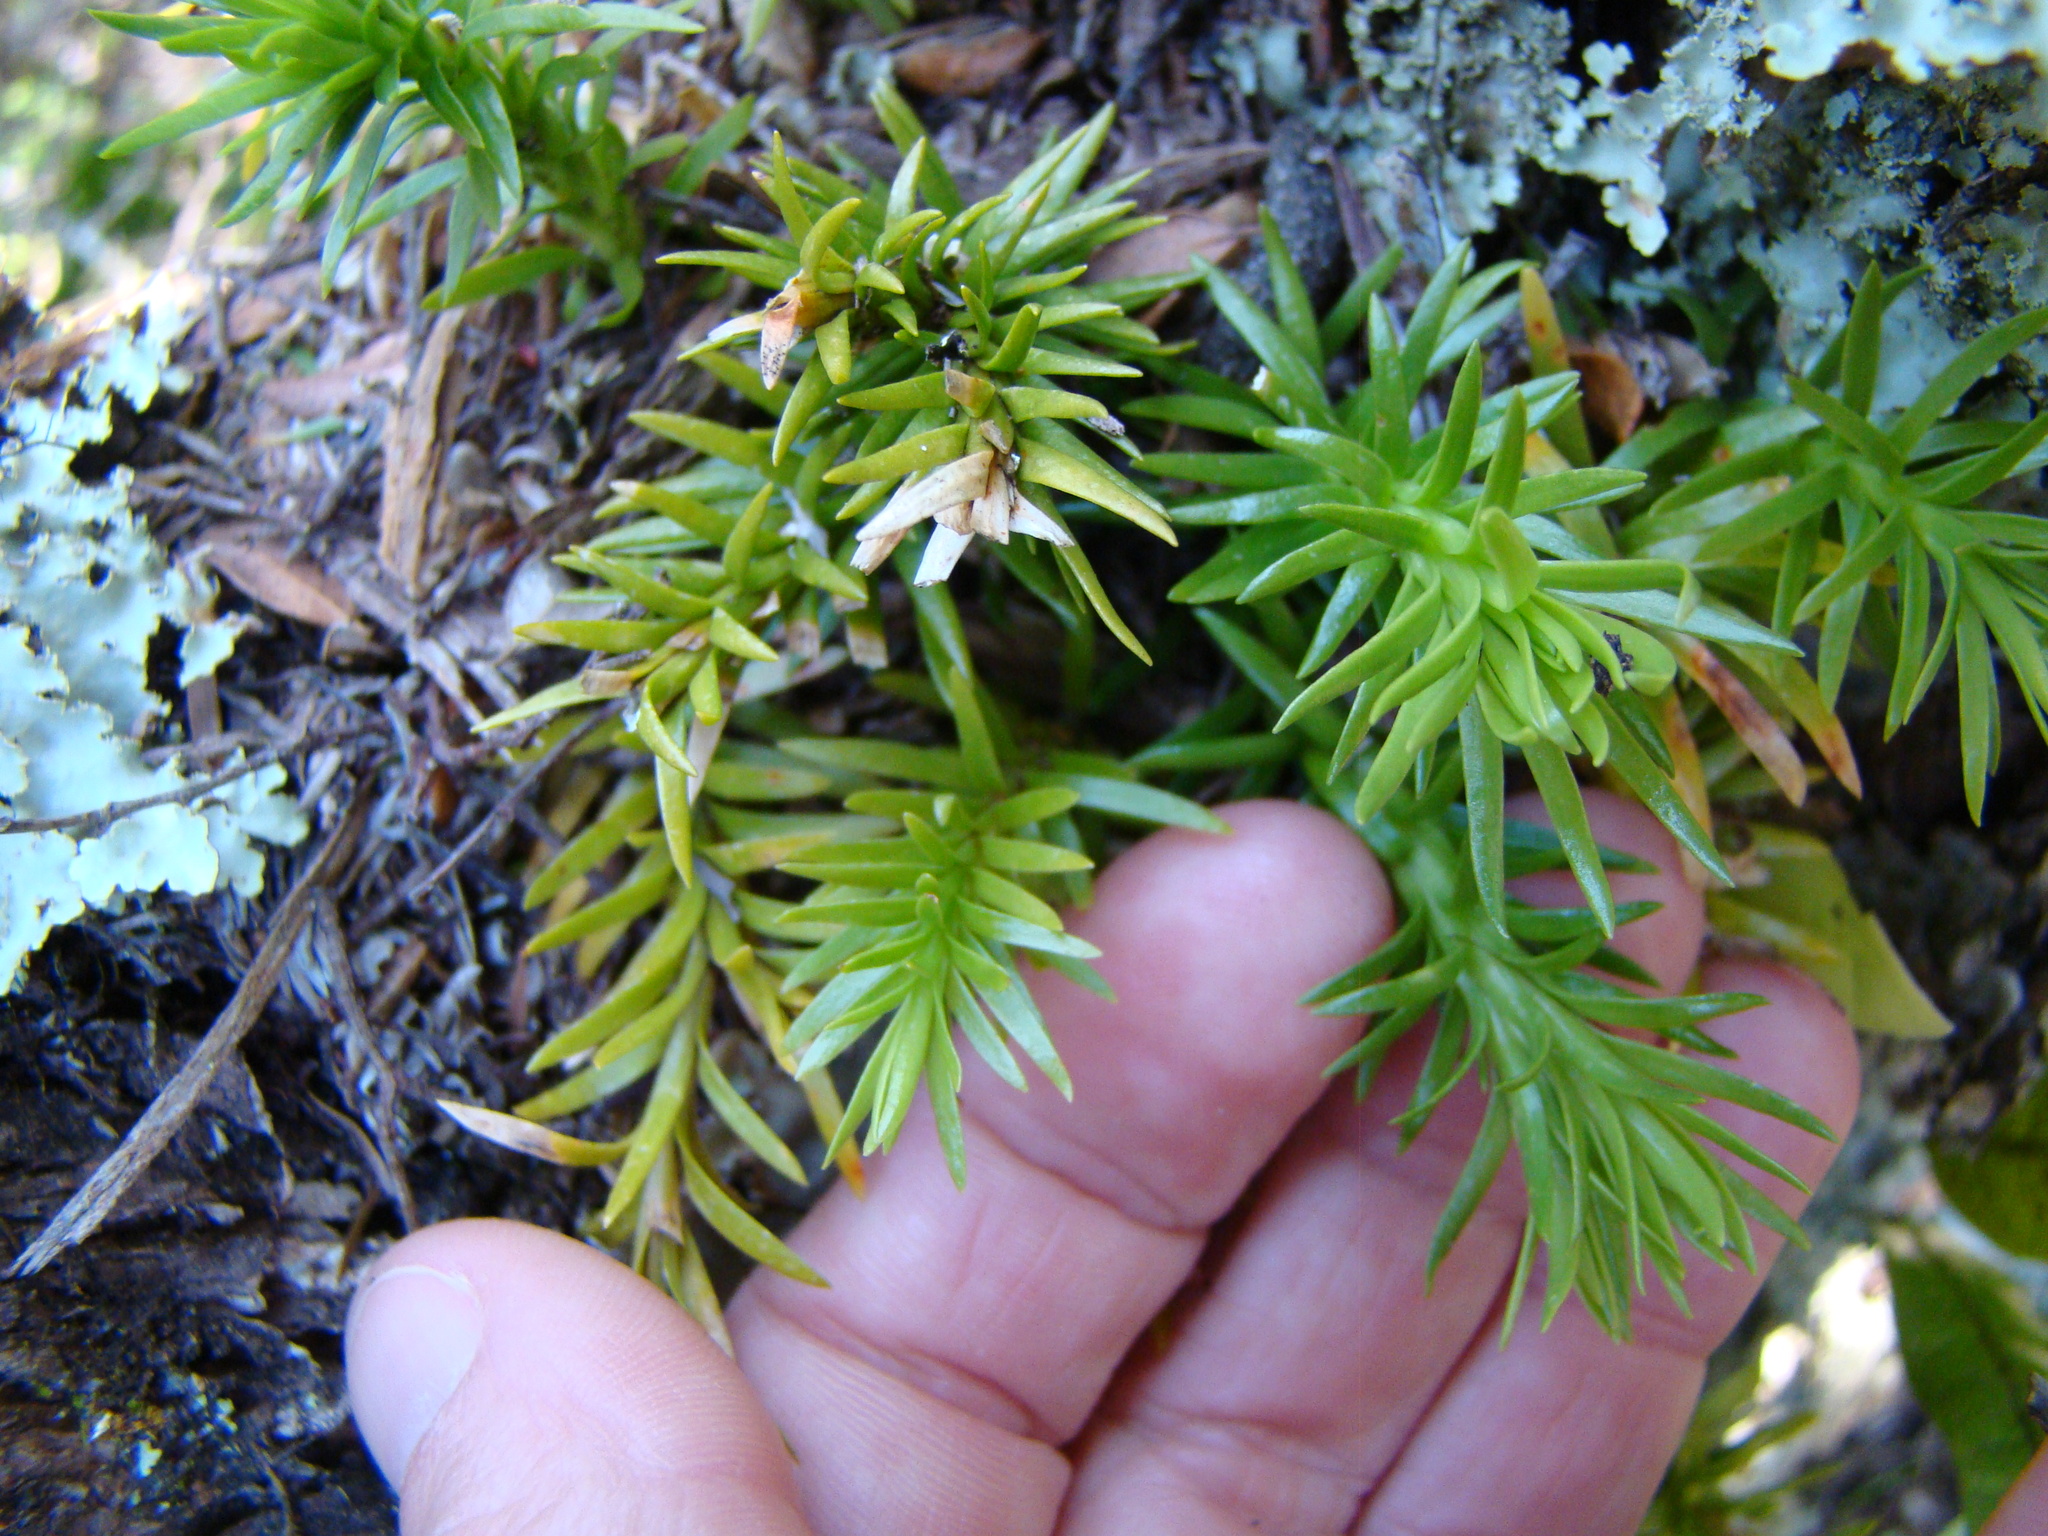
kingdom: Plantae
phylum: Tracheophyta
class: Lycopodiopsida
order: Lycopodiales
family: Lycopodiaceae
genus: Phlegmariurus
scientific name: Phlegmariurus
